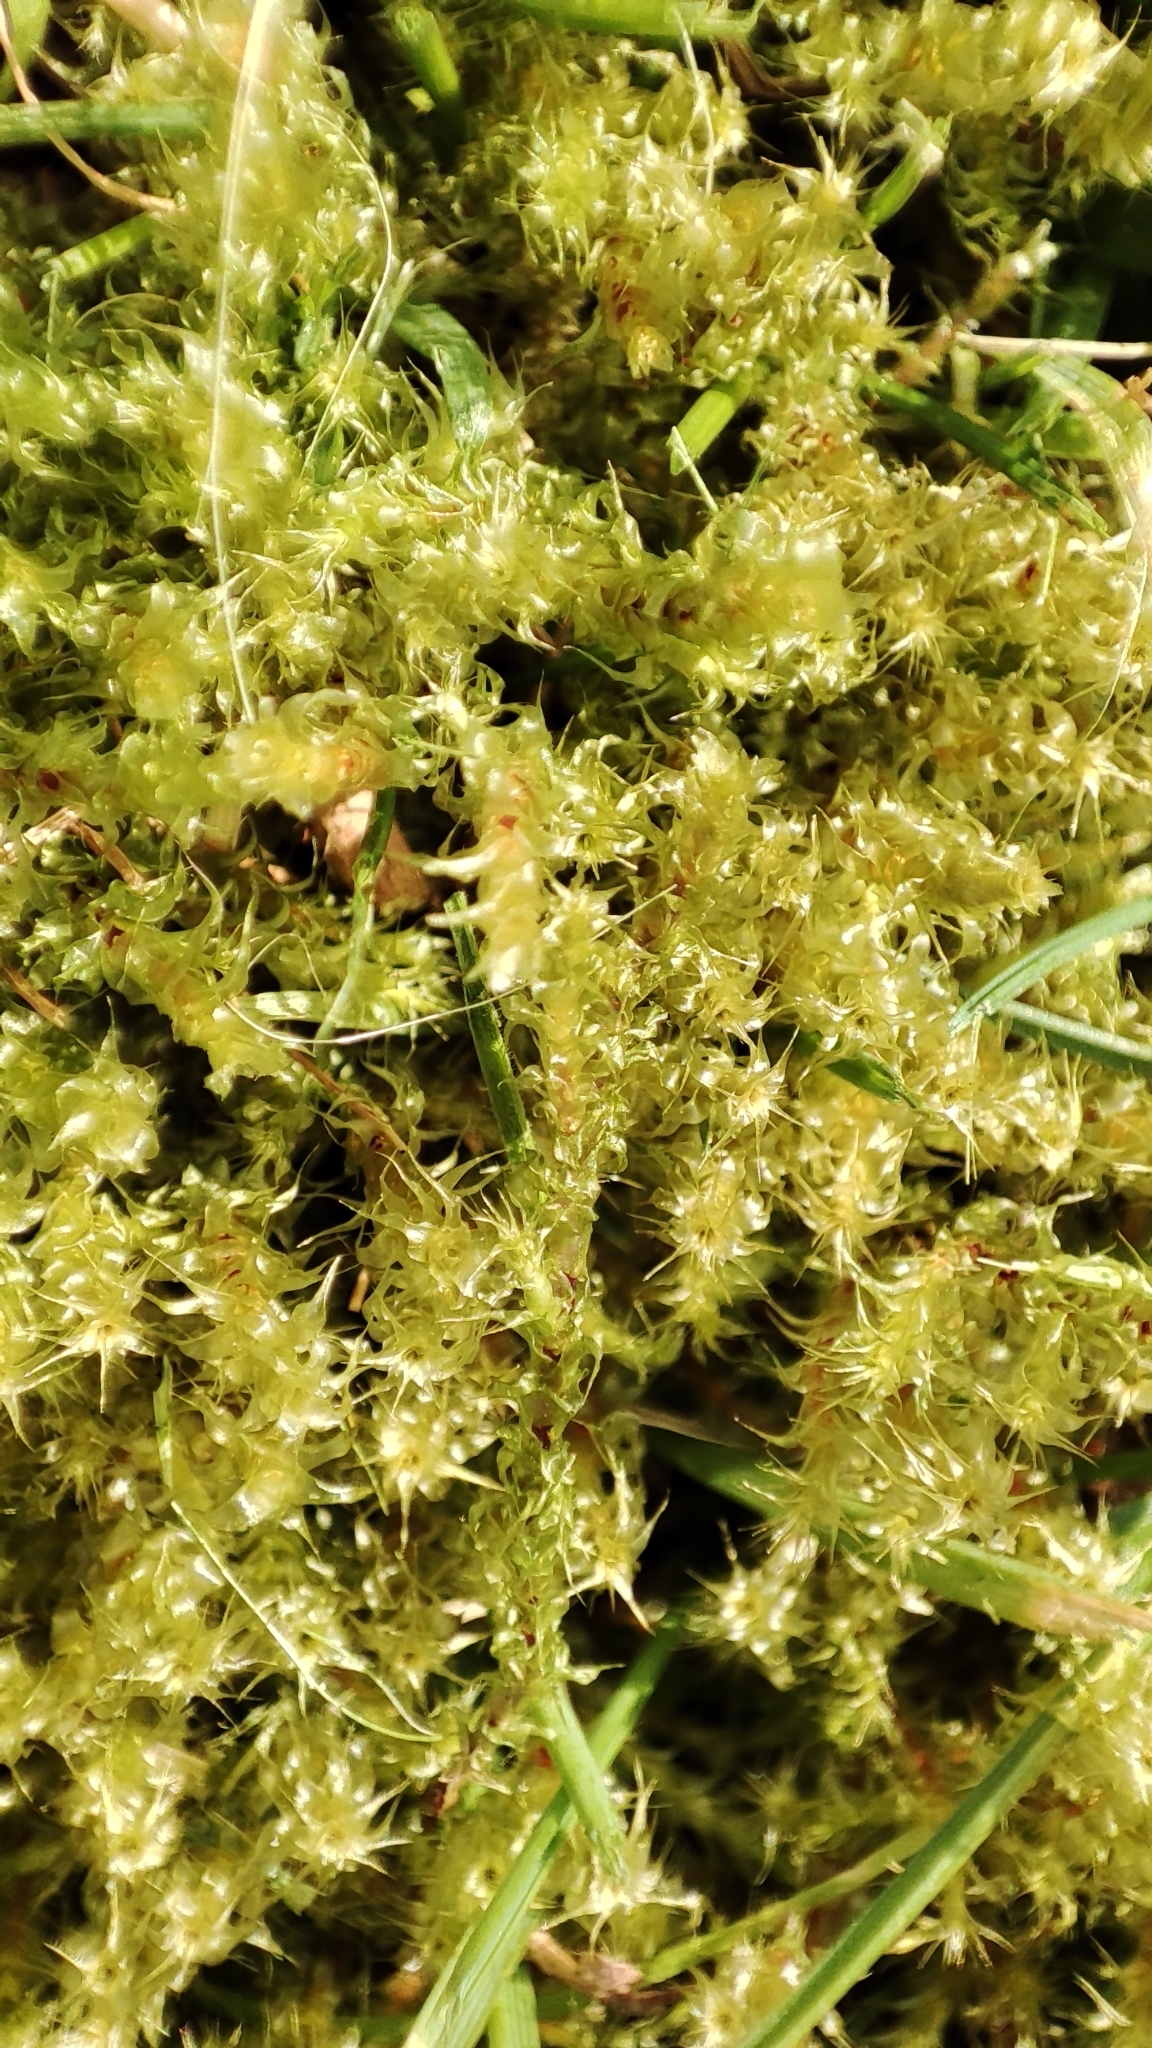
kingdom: Plantae
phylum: Bryophyta
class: Bryopsida
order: Hypnales
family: Hylocomiaceae
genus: Rhytidiadelphus
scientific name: Rhytidiadelphus squarrosus
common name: Springy turf-moss
